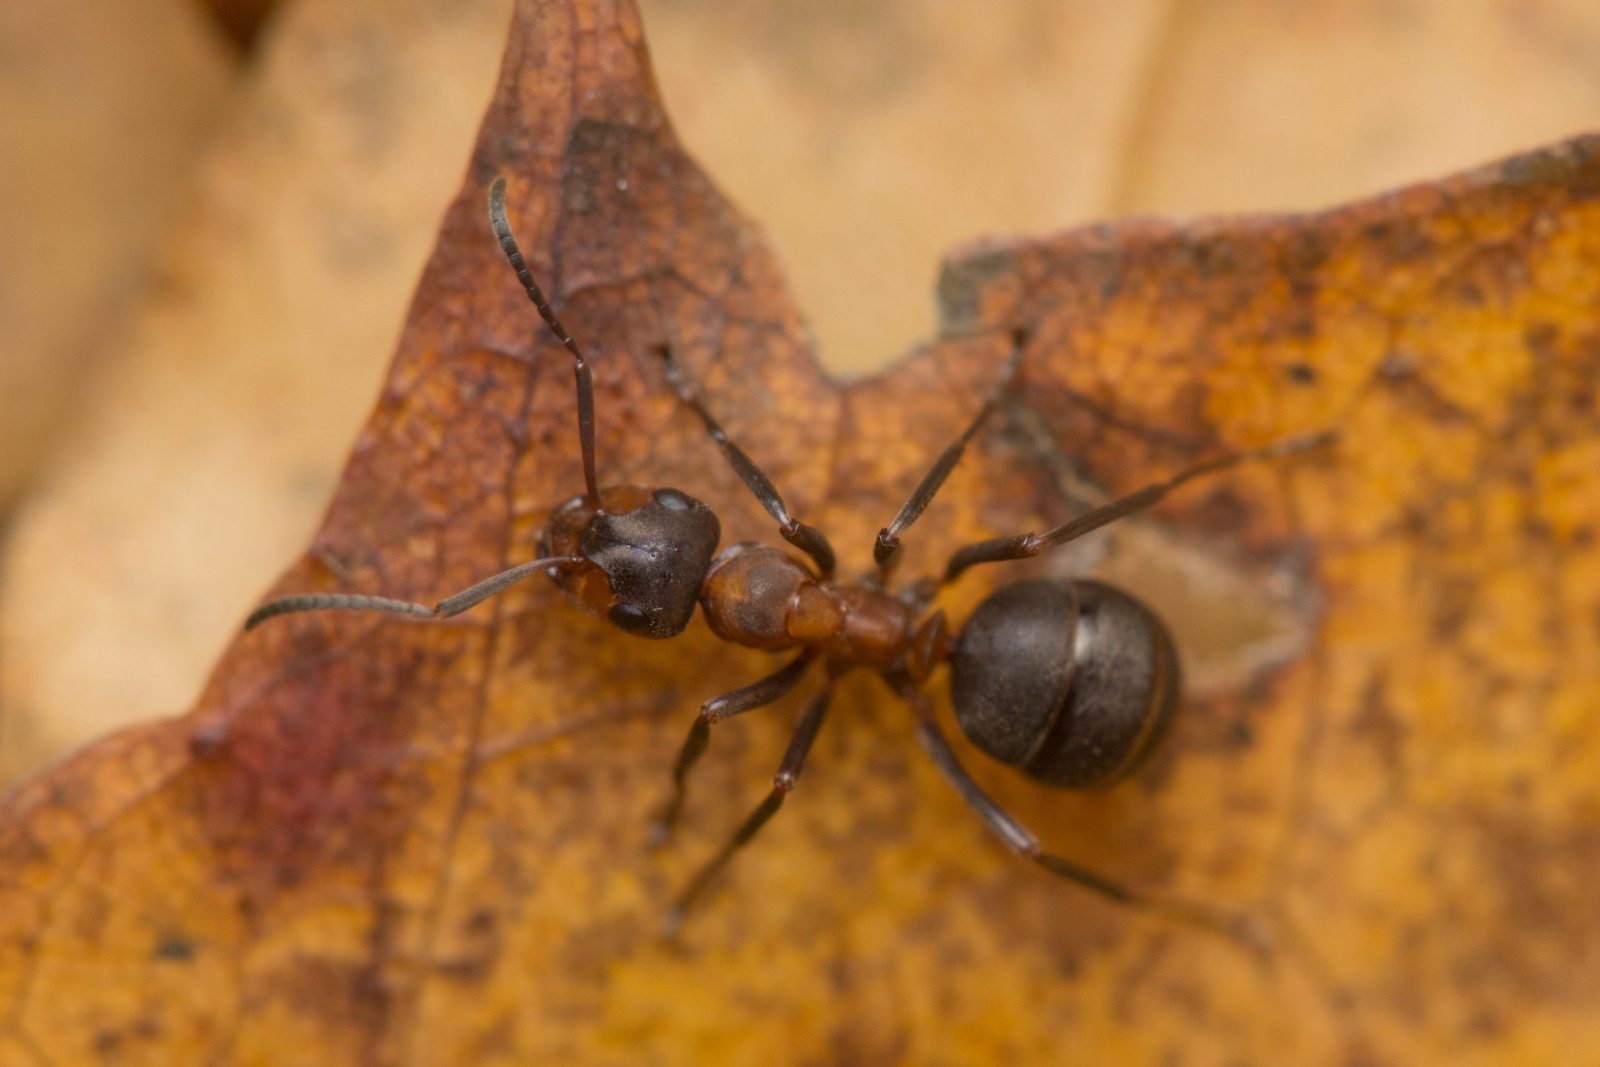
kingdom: Animalia
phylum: Arthropoda
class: Insecta
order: Hymenoptera
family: Formicidae
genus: Formica
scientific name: Formica polyctena
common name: European red wood ant
